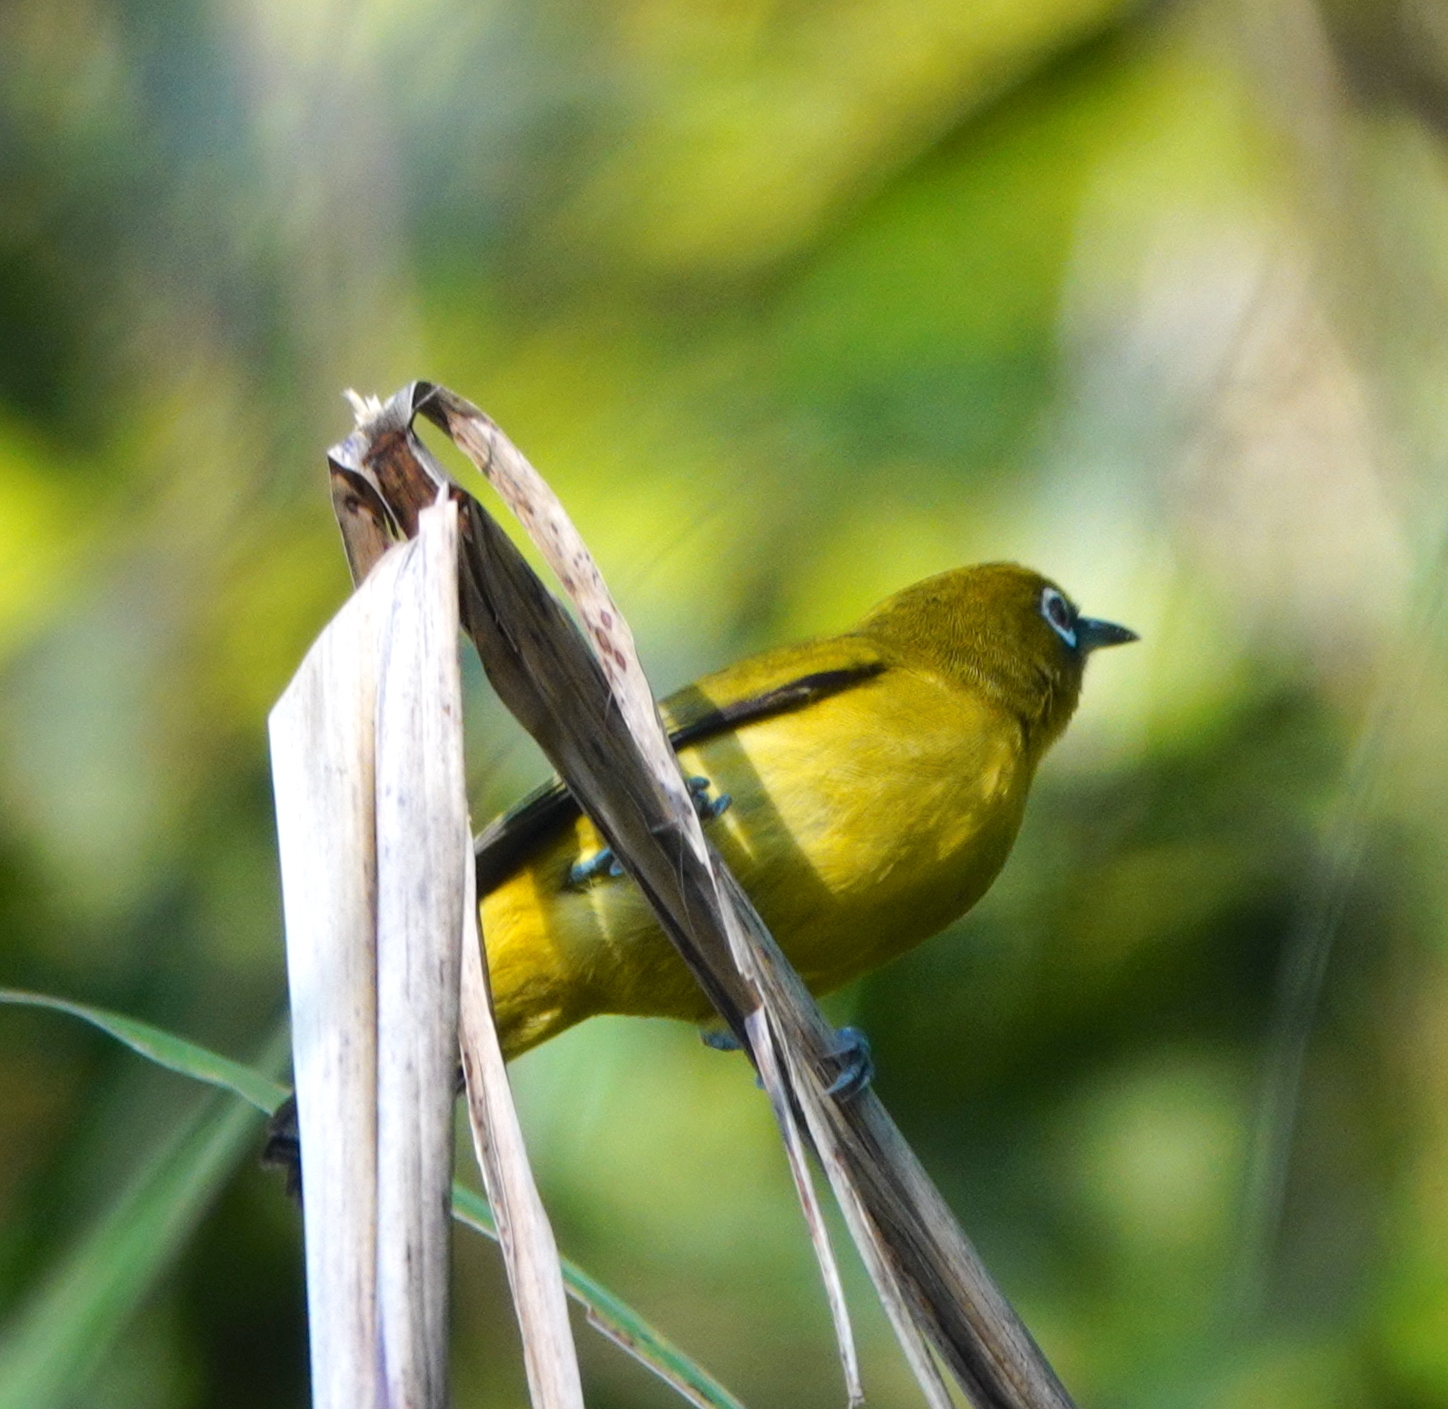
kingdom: Animalia
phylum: Chordata
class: Aves
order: Passeriformes
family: Zosteropidae
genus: Zosterops
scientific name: Zosterops buruensis
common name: Buru white-eye
